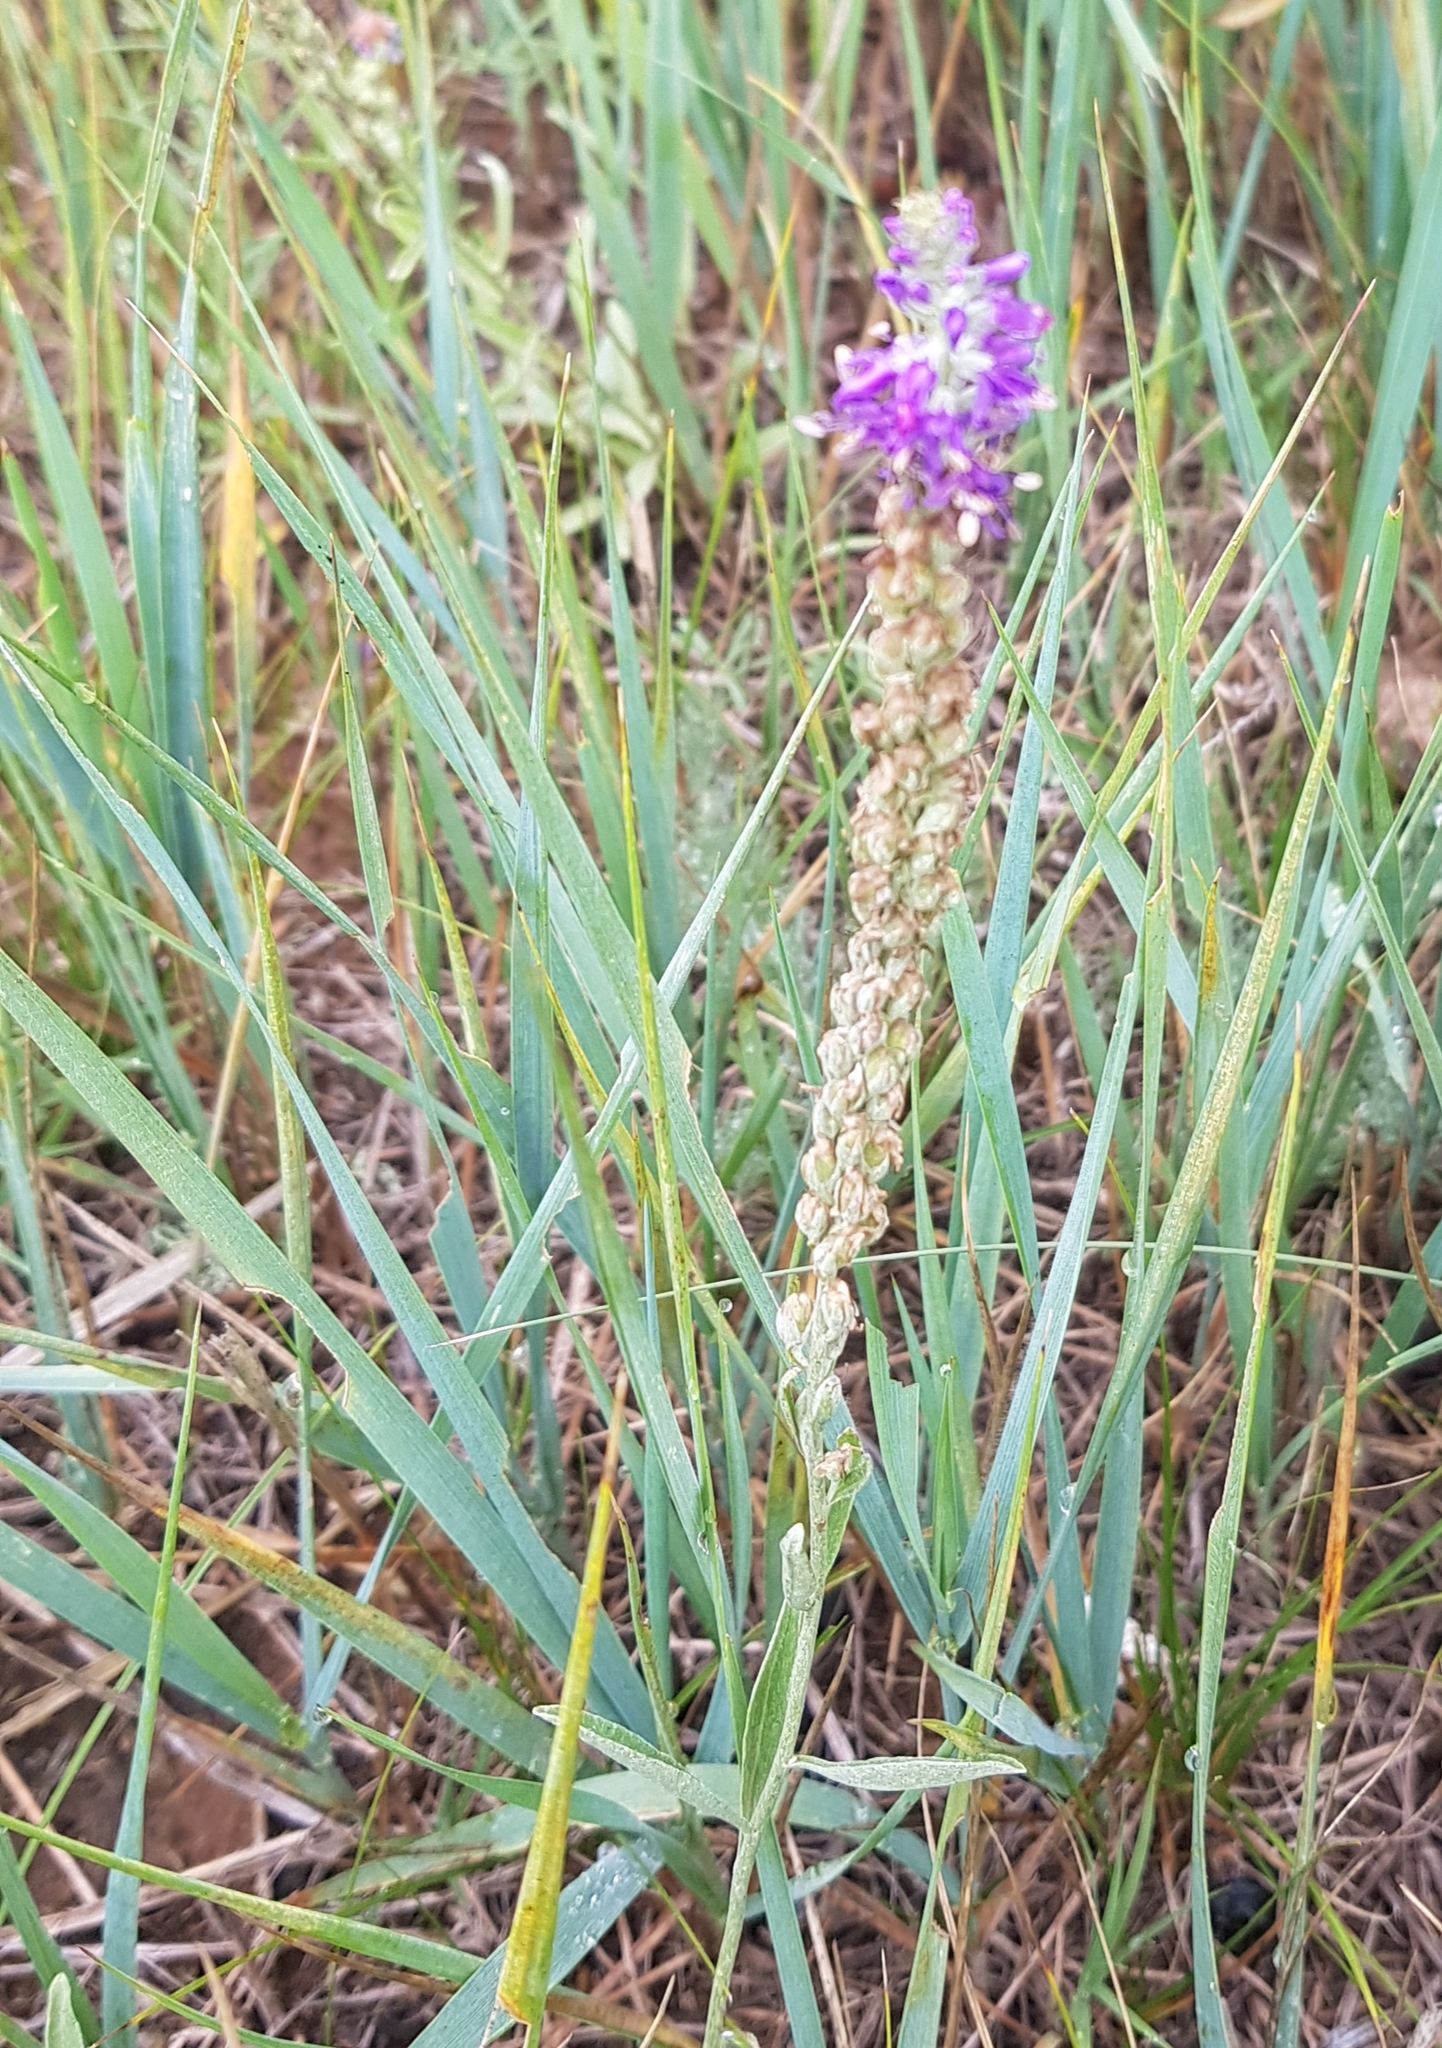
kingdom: Plantae
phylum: Tracheophyta
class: Magnoliopsida
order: Lamiales
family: Plantaginaceae
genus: Veronica
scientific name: Veronica incana
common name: Silver speedwell
